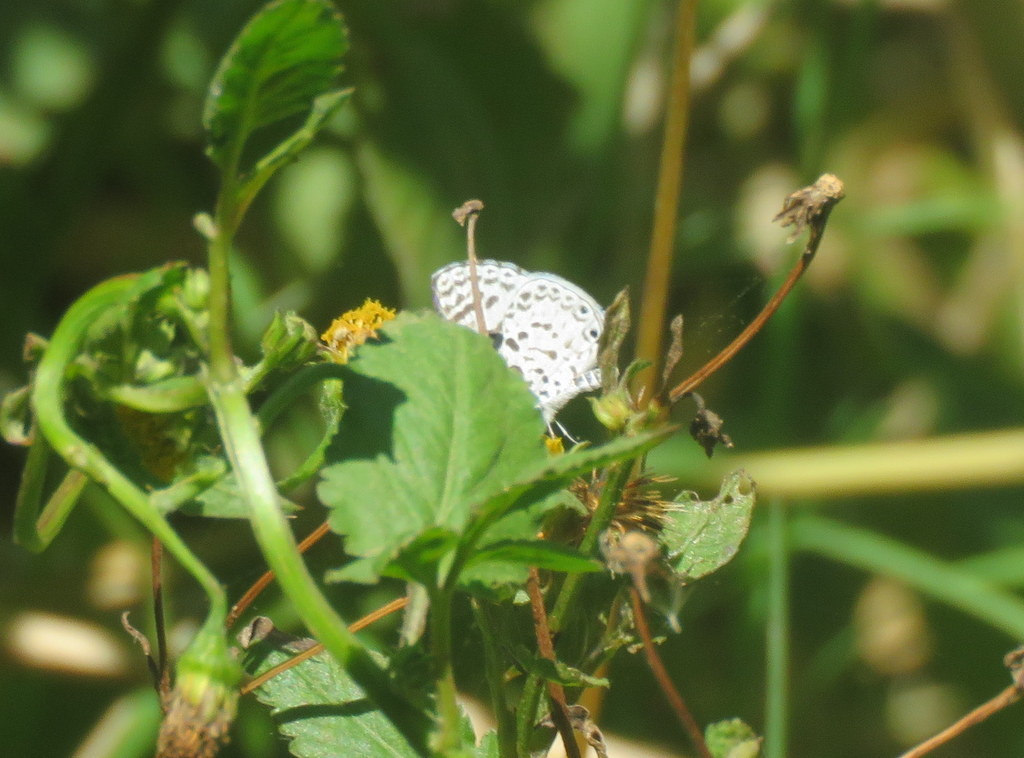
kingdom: Animalia
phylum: Arthropoda
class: Insecta
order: Lepidoptera
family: Lycaenidae
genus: Leptotes
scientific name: Leptotes cassius
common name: Cassius blue
